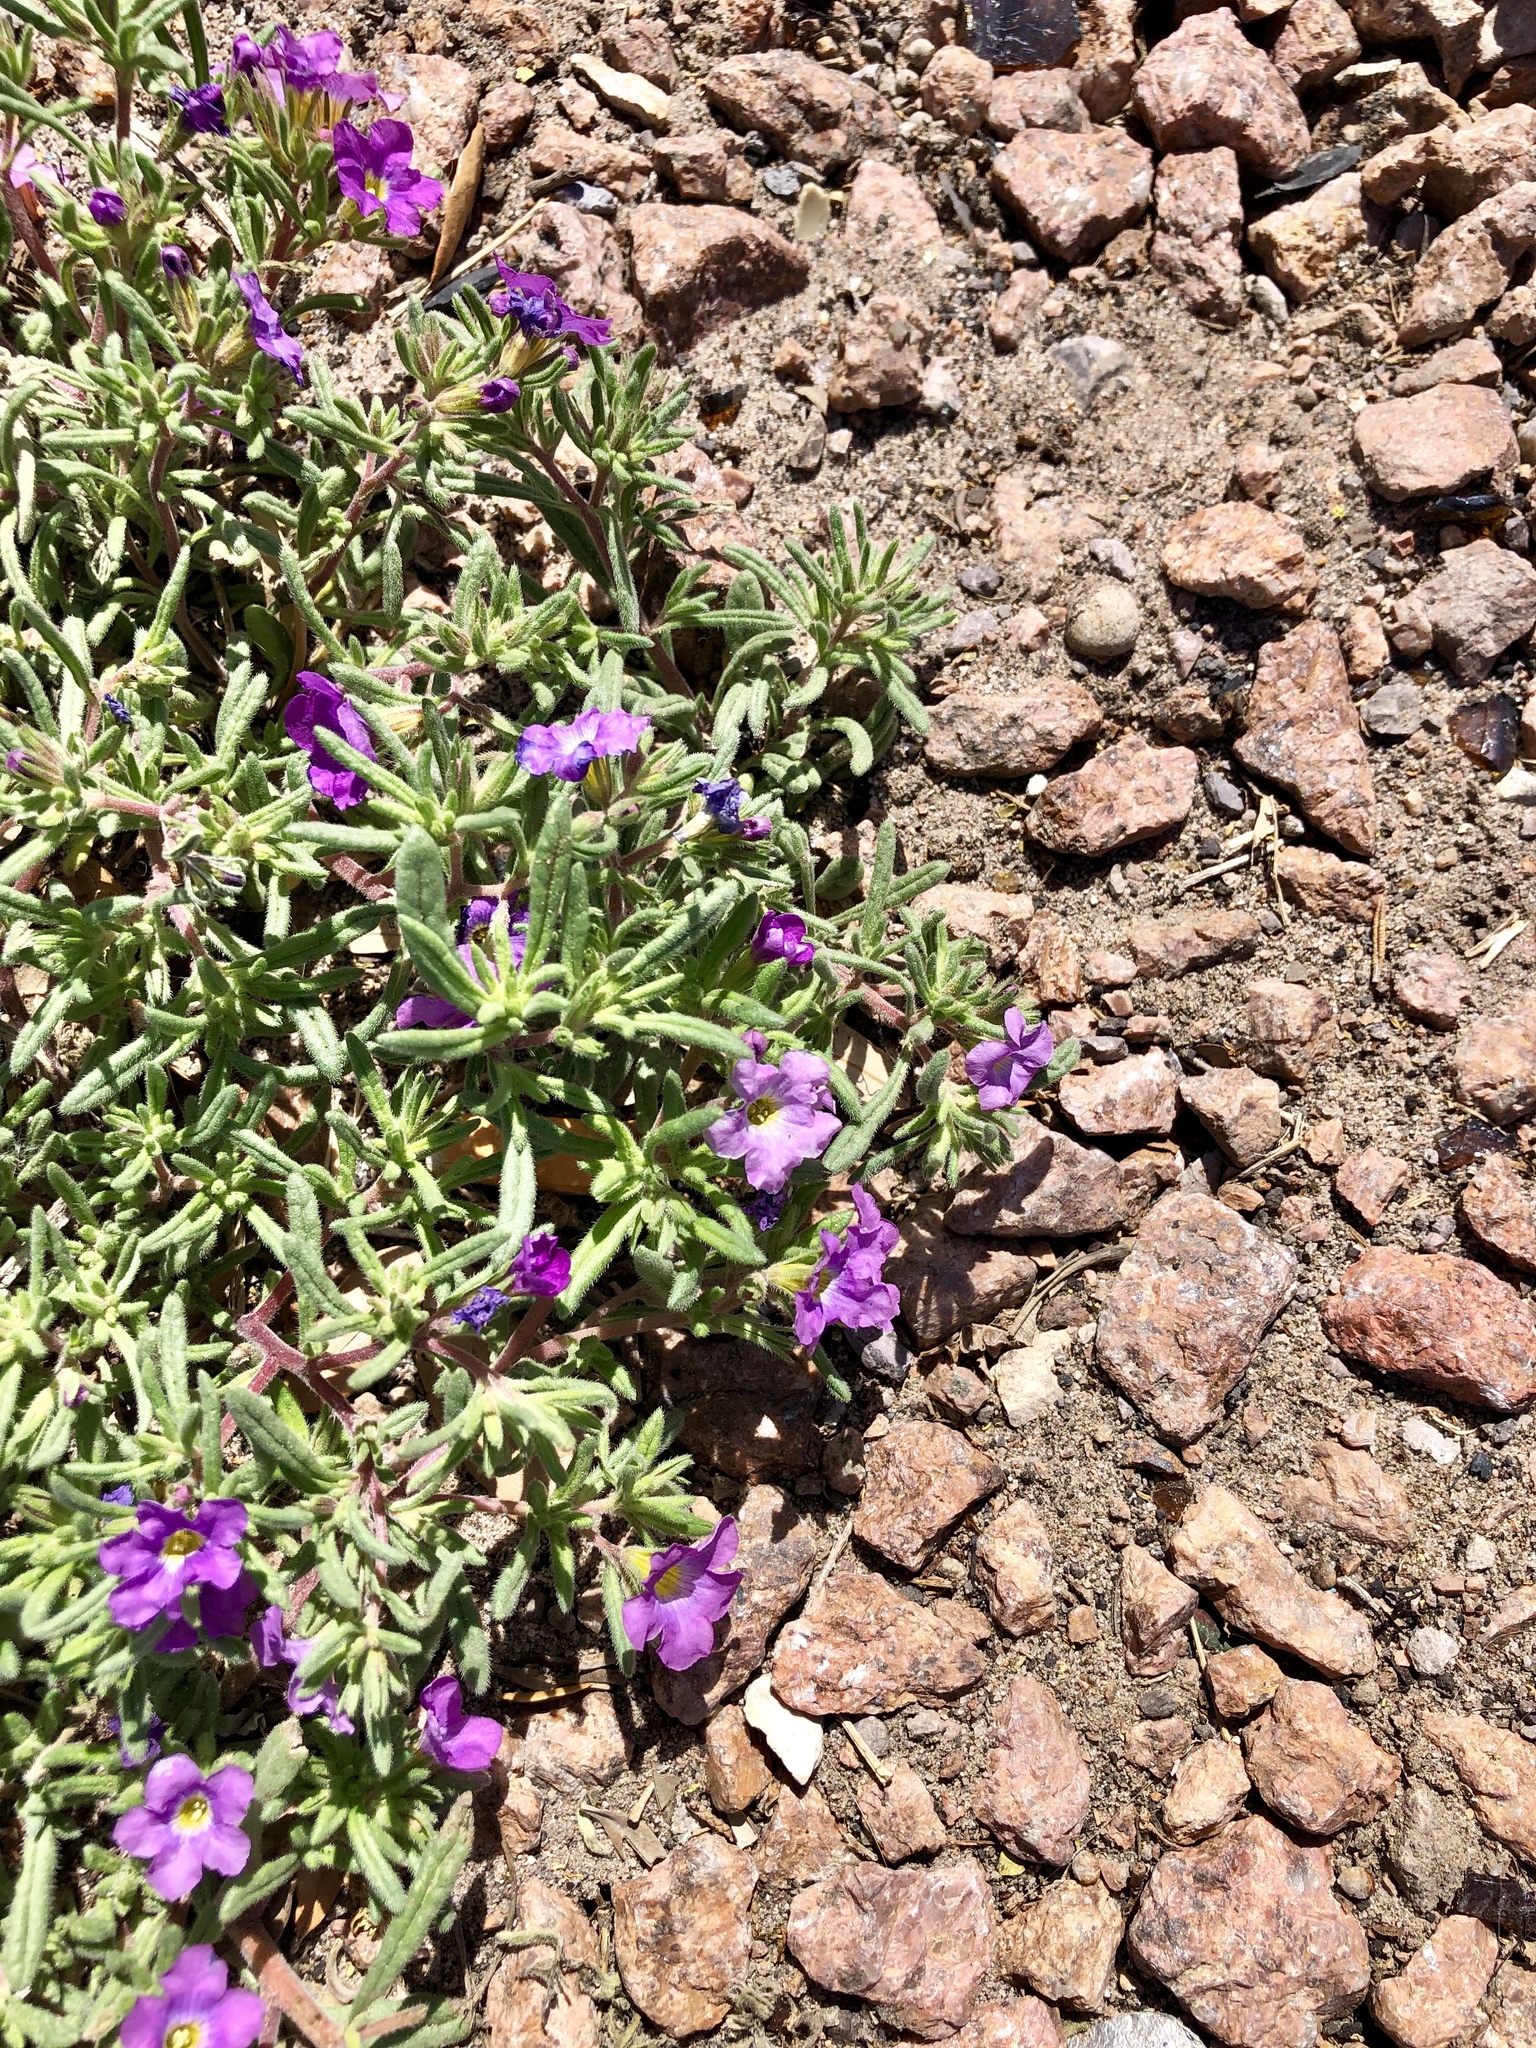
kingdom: Plantae
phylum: Tracheophyta
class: Magnoliopsida
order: Boraginales
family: Namaceae
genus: Nama
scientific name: Nama hispida
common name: Bristly nama
